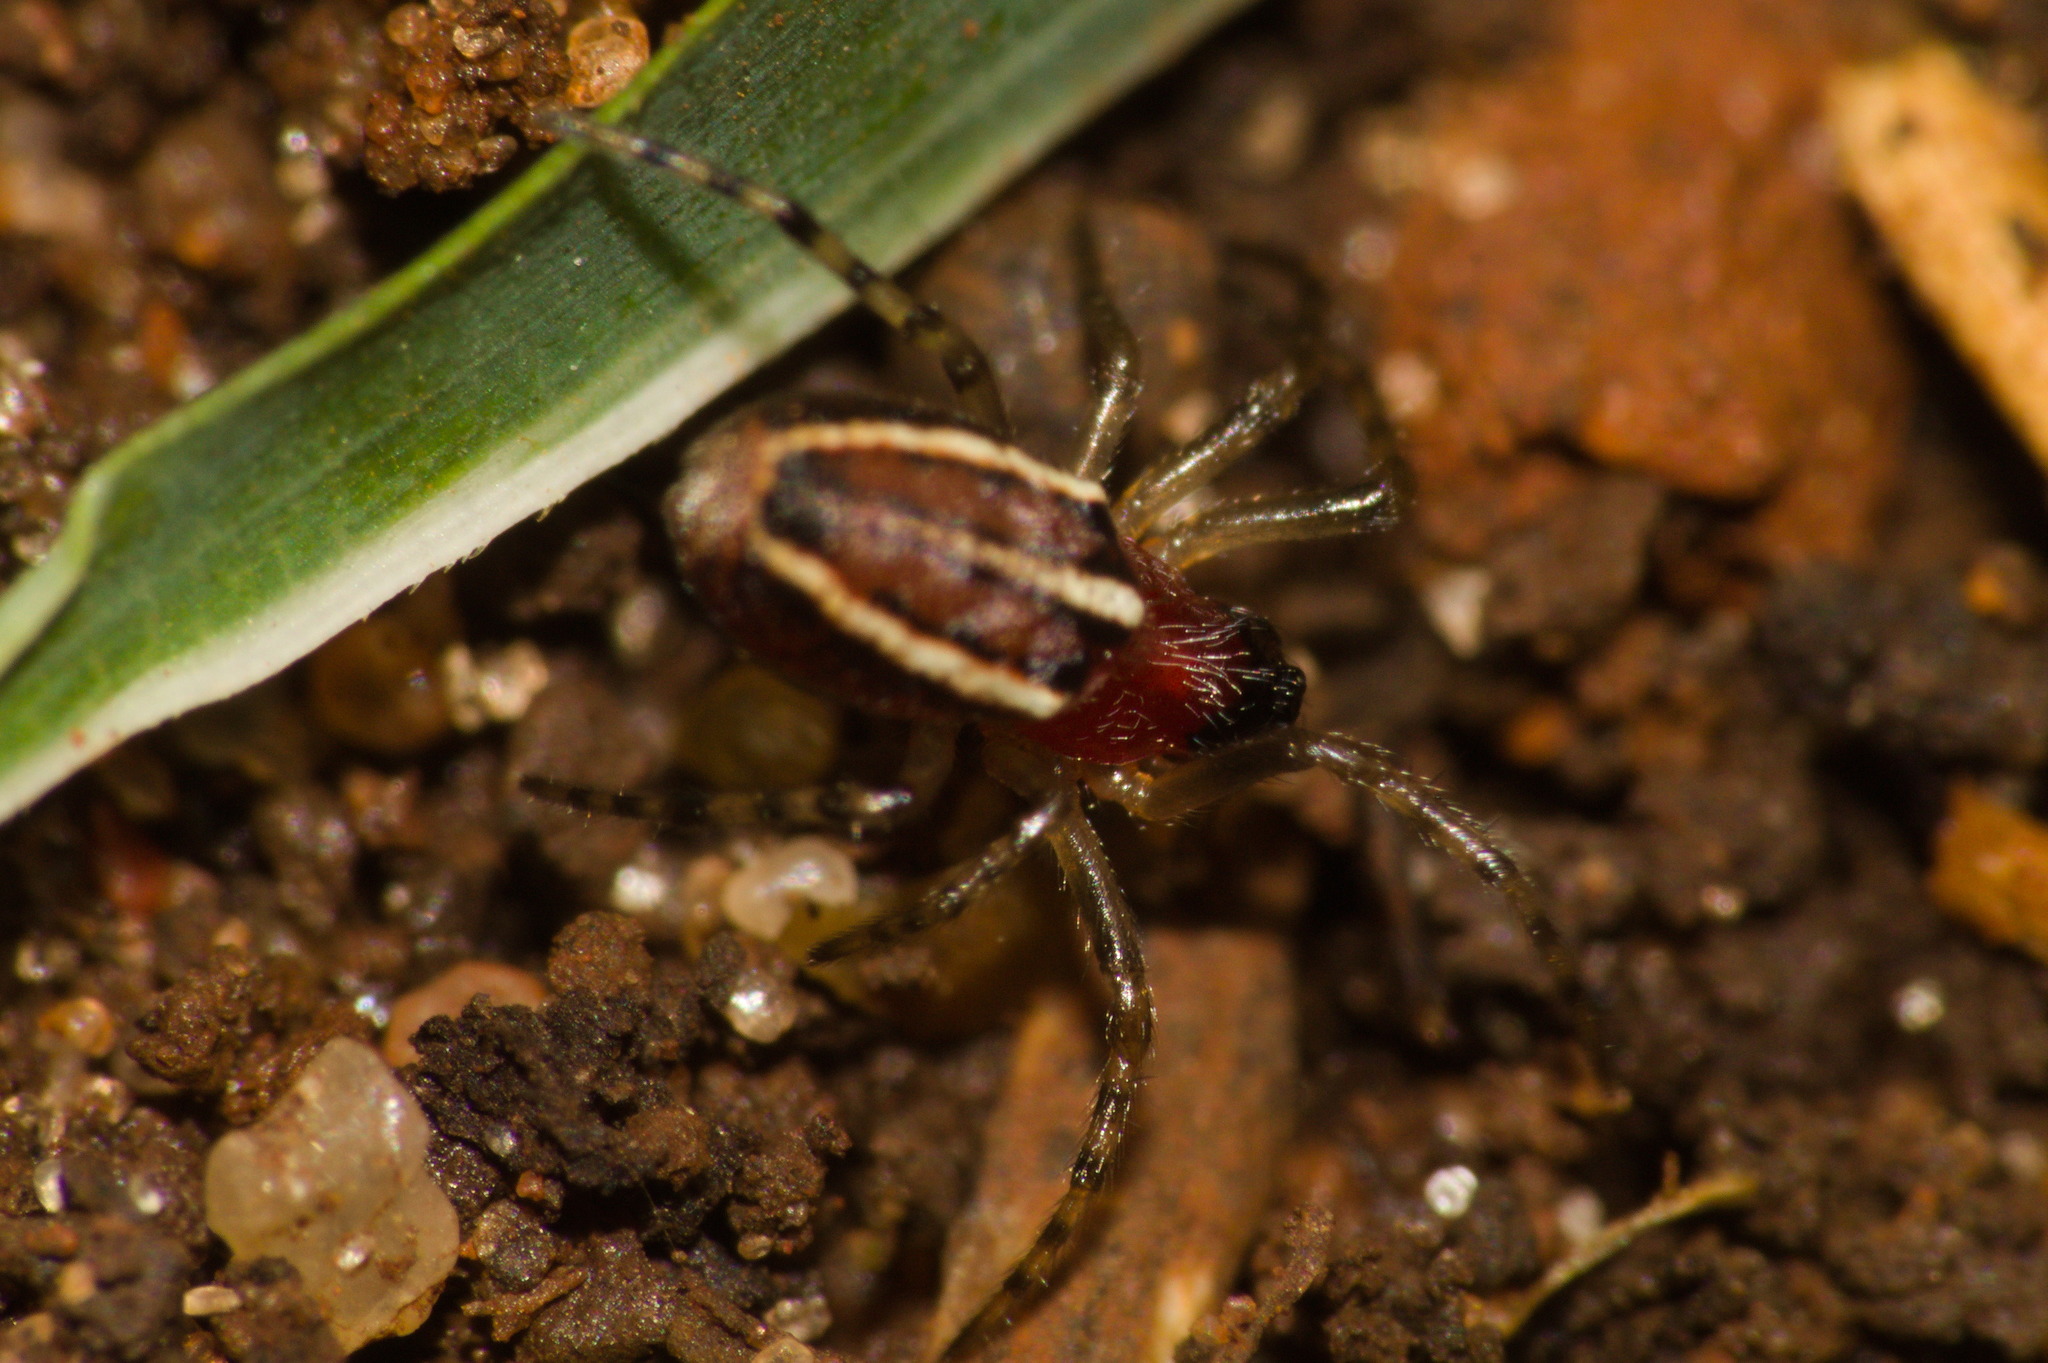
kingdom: Animalia
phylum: Arthropoda
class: Arachnida
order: Araneae
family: Araneidae
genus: Alpaida
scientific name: Alpaida leucogramma
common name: Orb weavers
